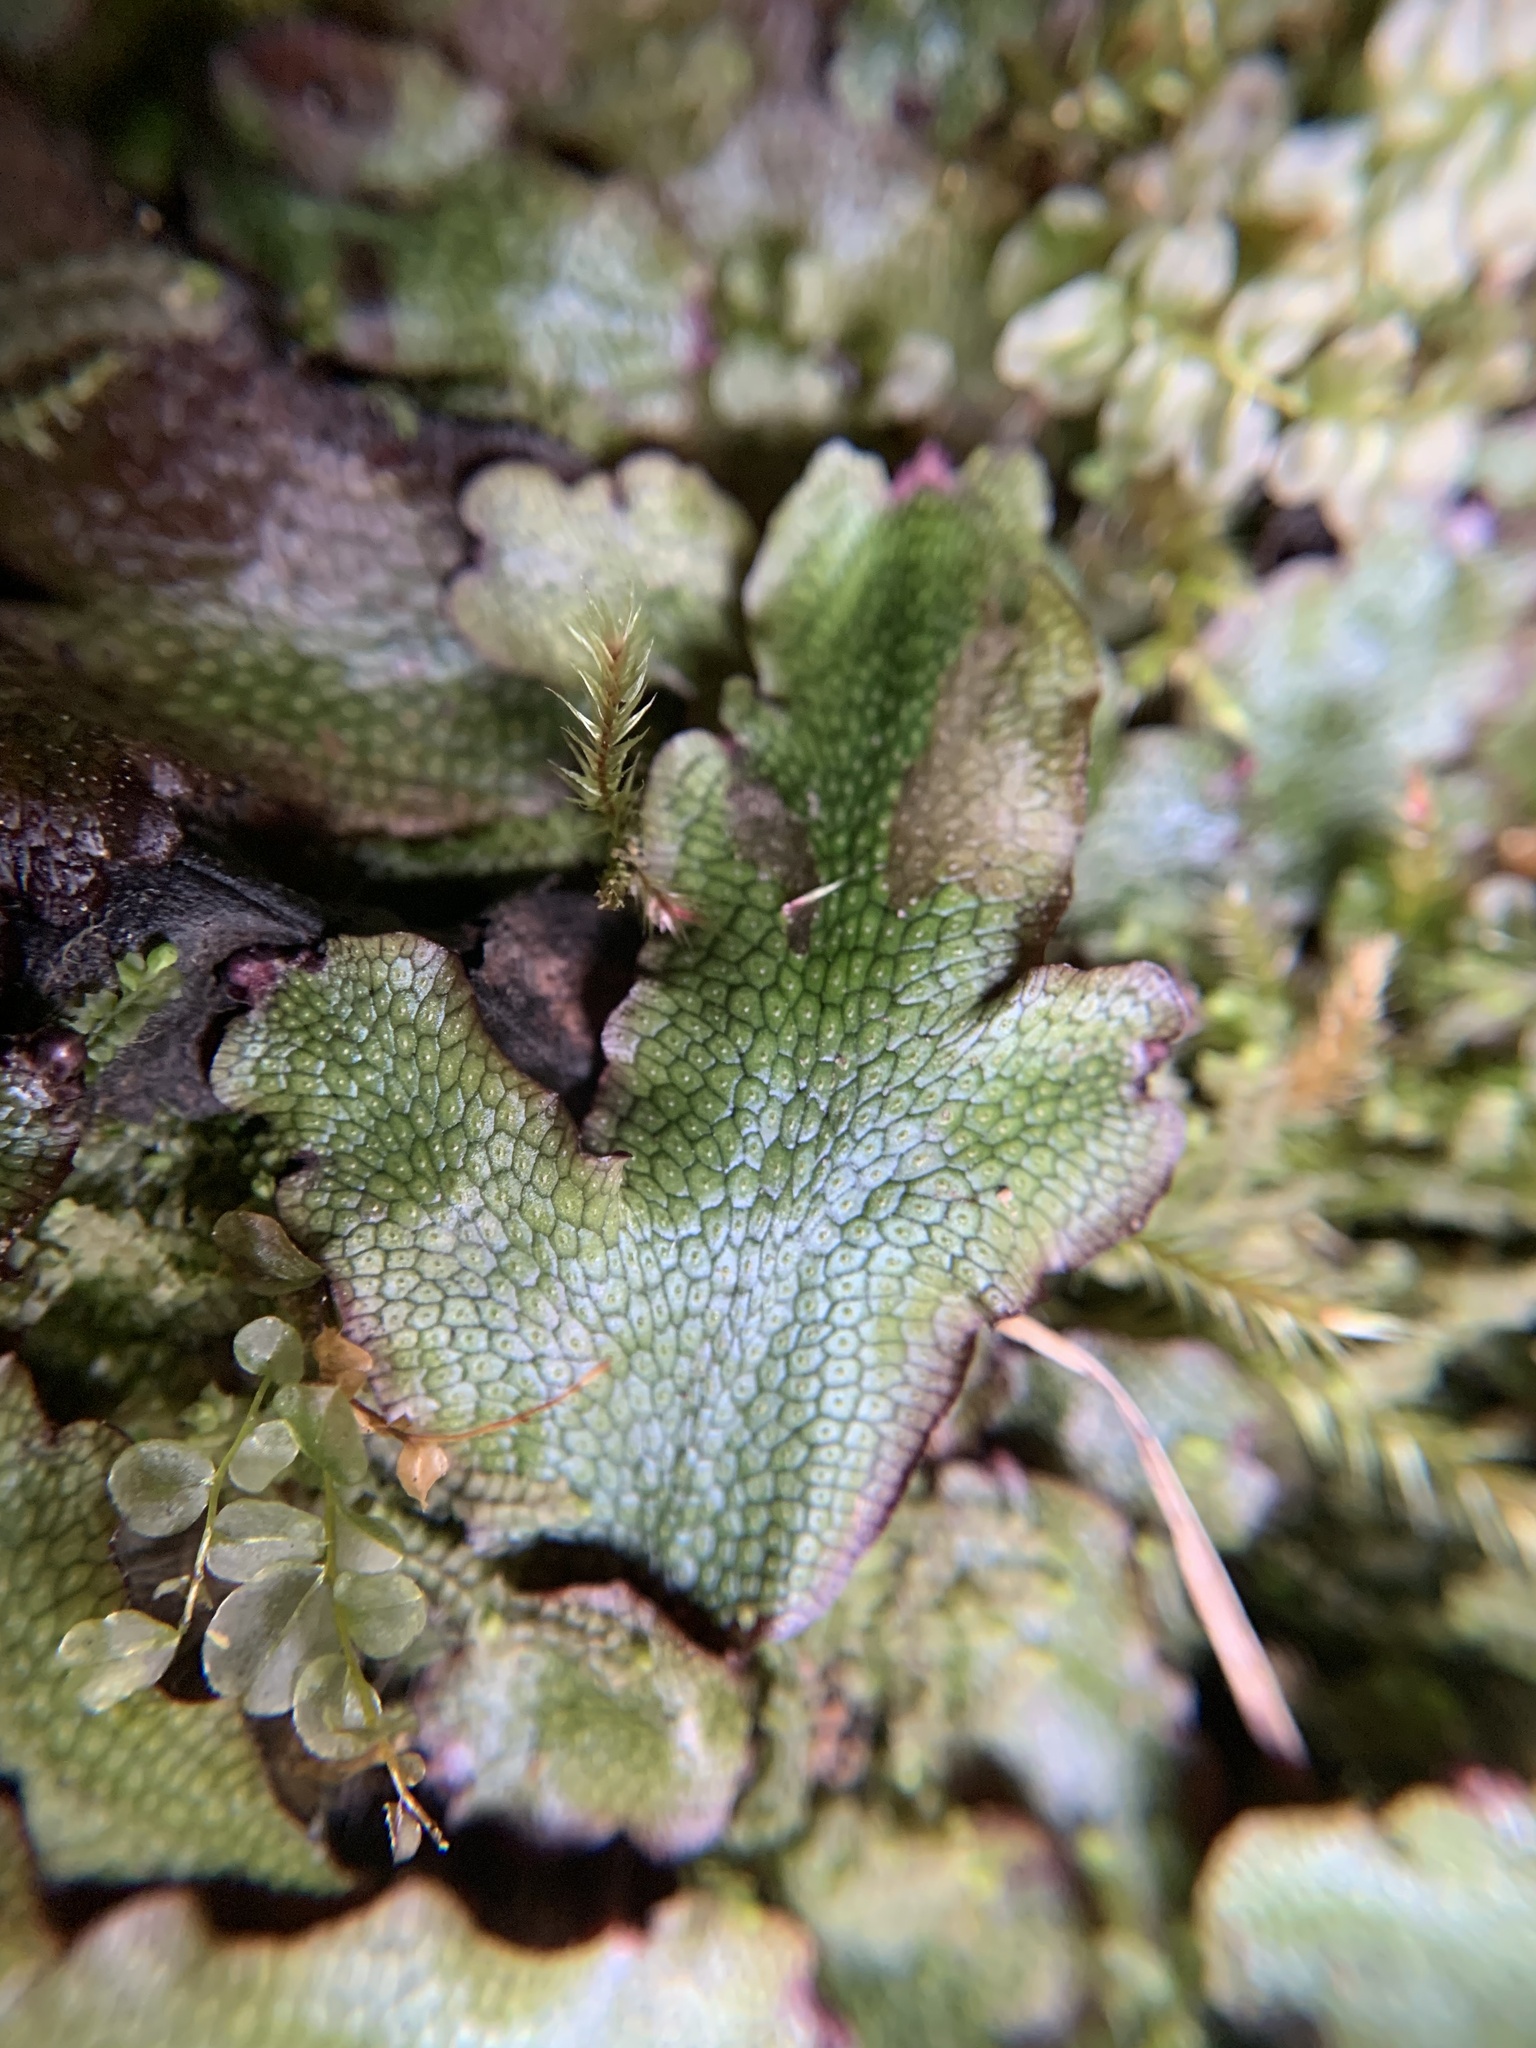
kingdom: Plantae
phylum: Marchantiophyta
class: Marchantiopsida
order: Marchantiales
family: Conocephalaceae
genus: Conocephalum
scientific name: Conocephalum salebrosum
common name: Cat-tongue liverwort
